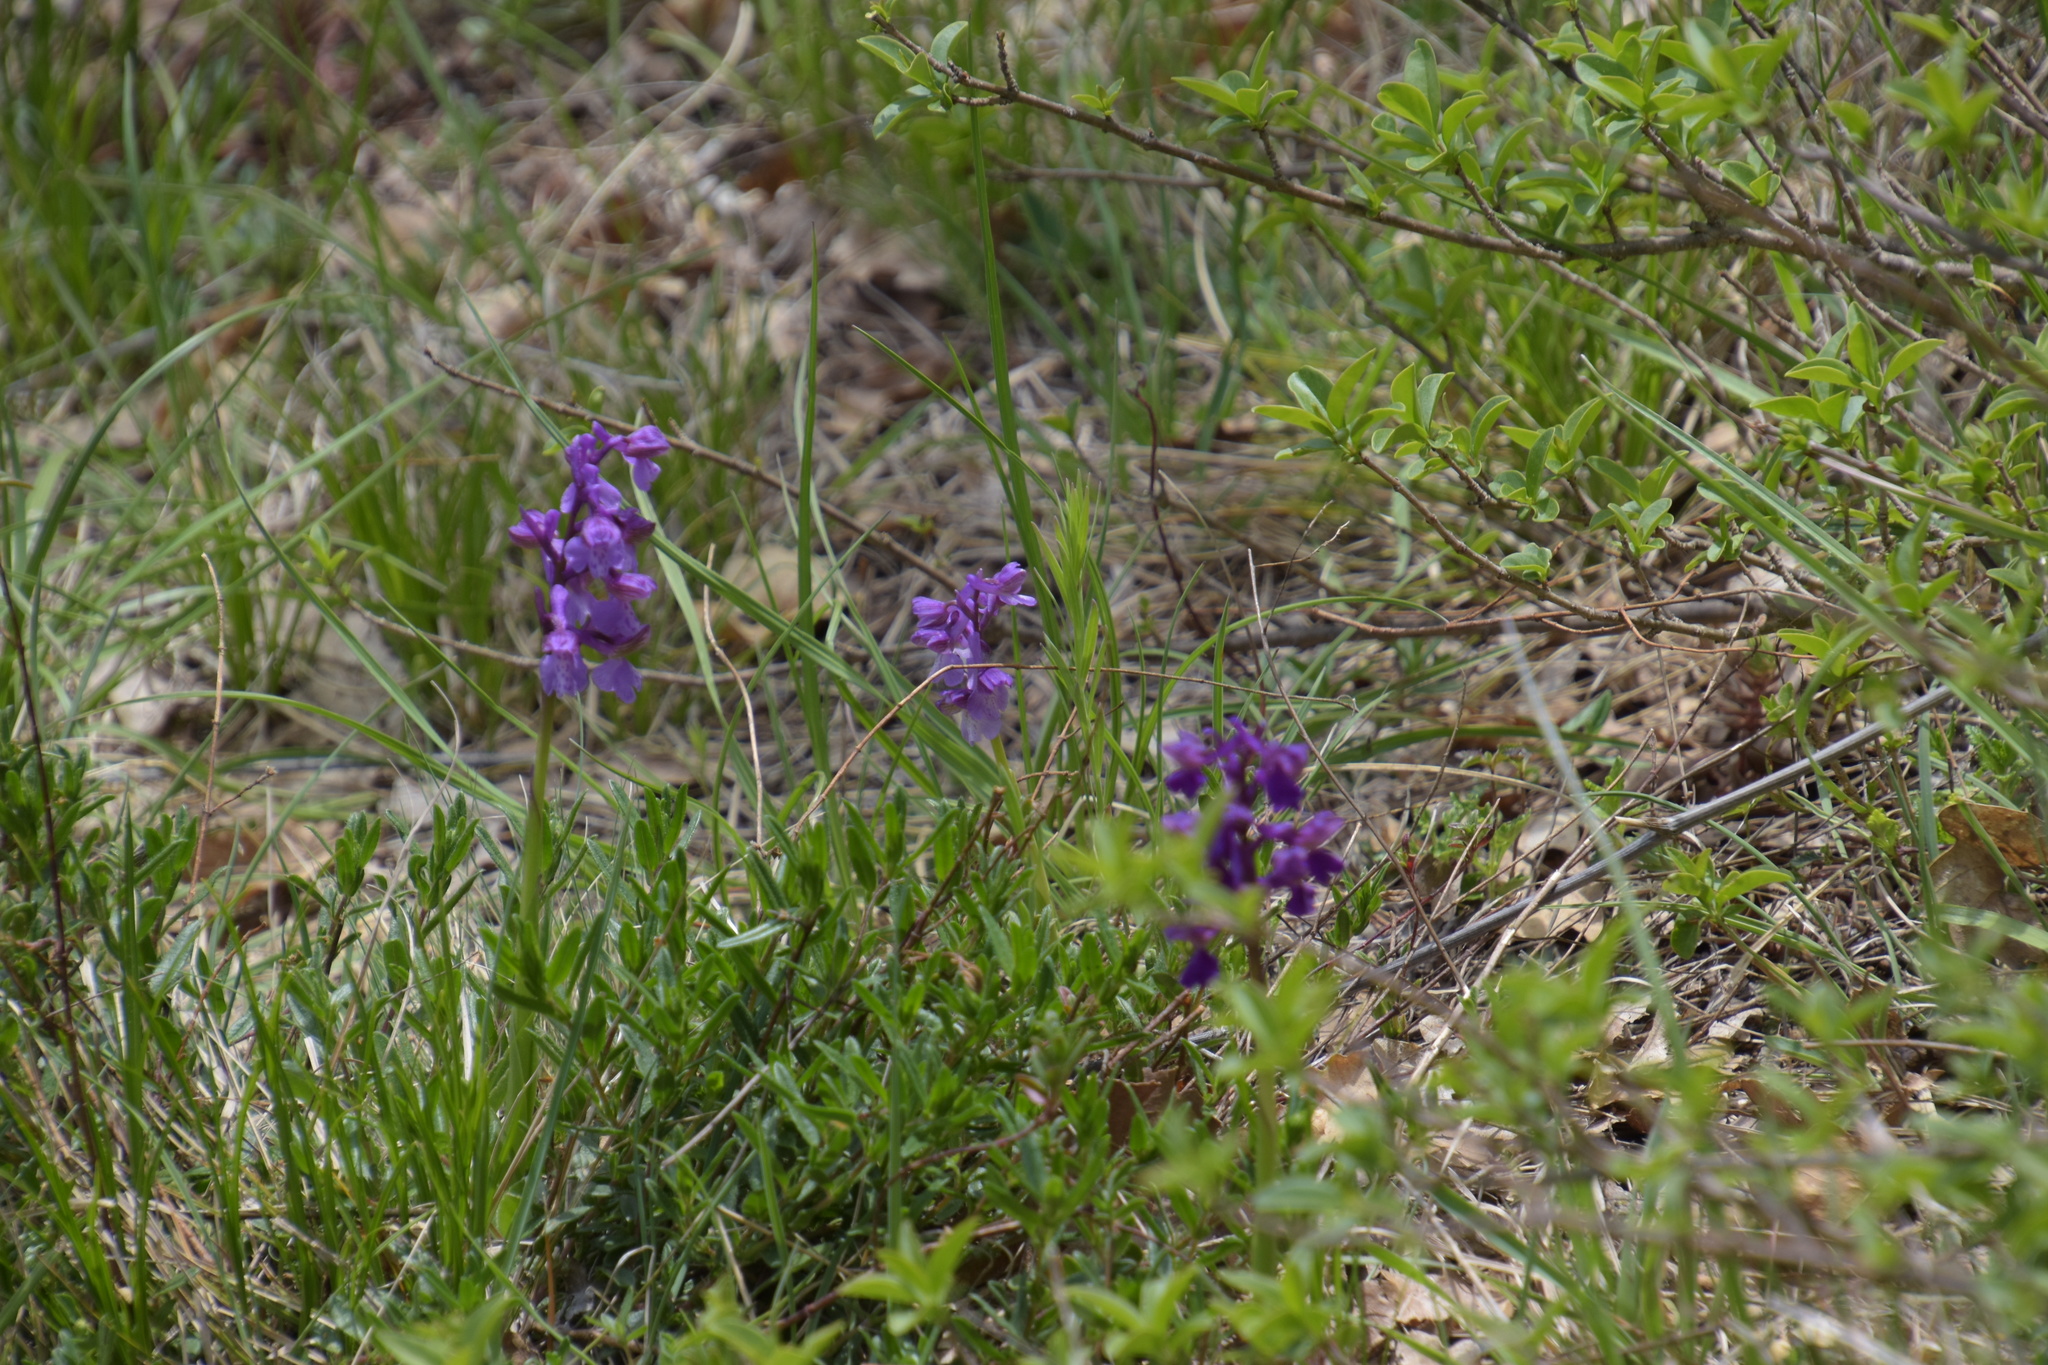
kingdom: Plantae
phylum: Tracheophyta
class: Liliopsida
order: Asparagales
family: Orchidaceae
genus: Anacamptis
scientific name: Anacamptis morio
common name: Green-winged orchid
